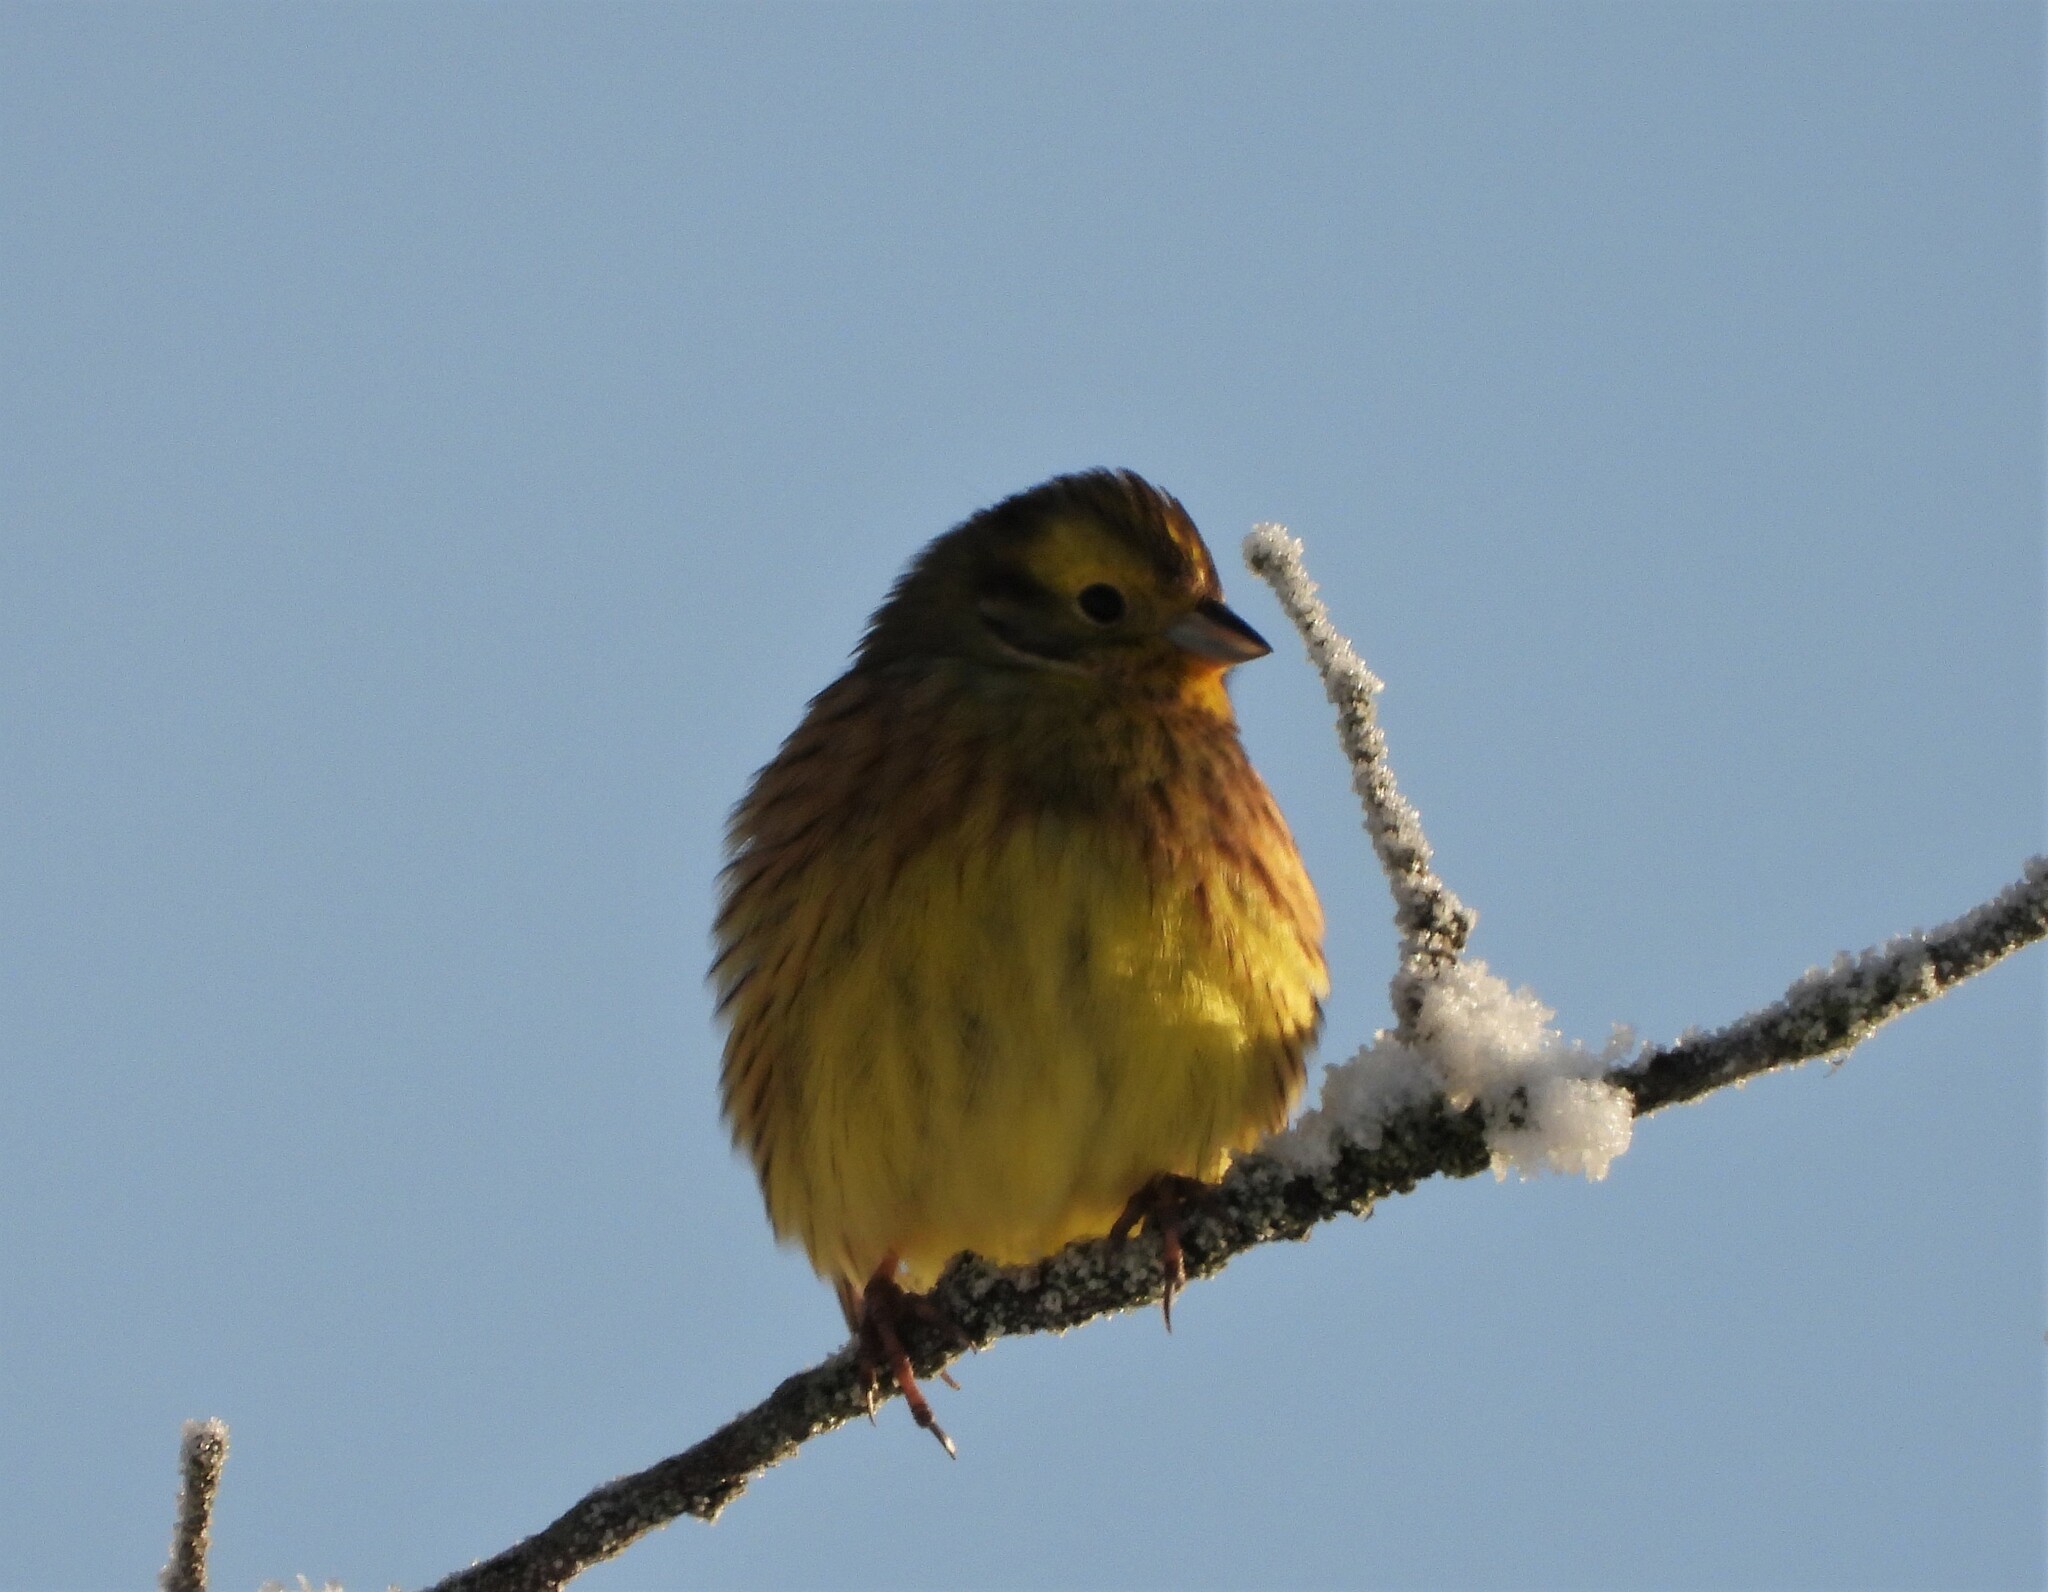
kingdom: Animalia
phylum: Chordata
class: Aves
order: Passeriformes
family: Emberizidae
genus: Emberiza
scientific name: Emberiza citrinella
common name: Yellowhammer
